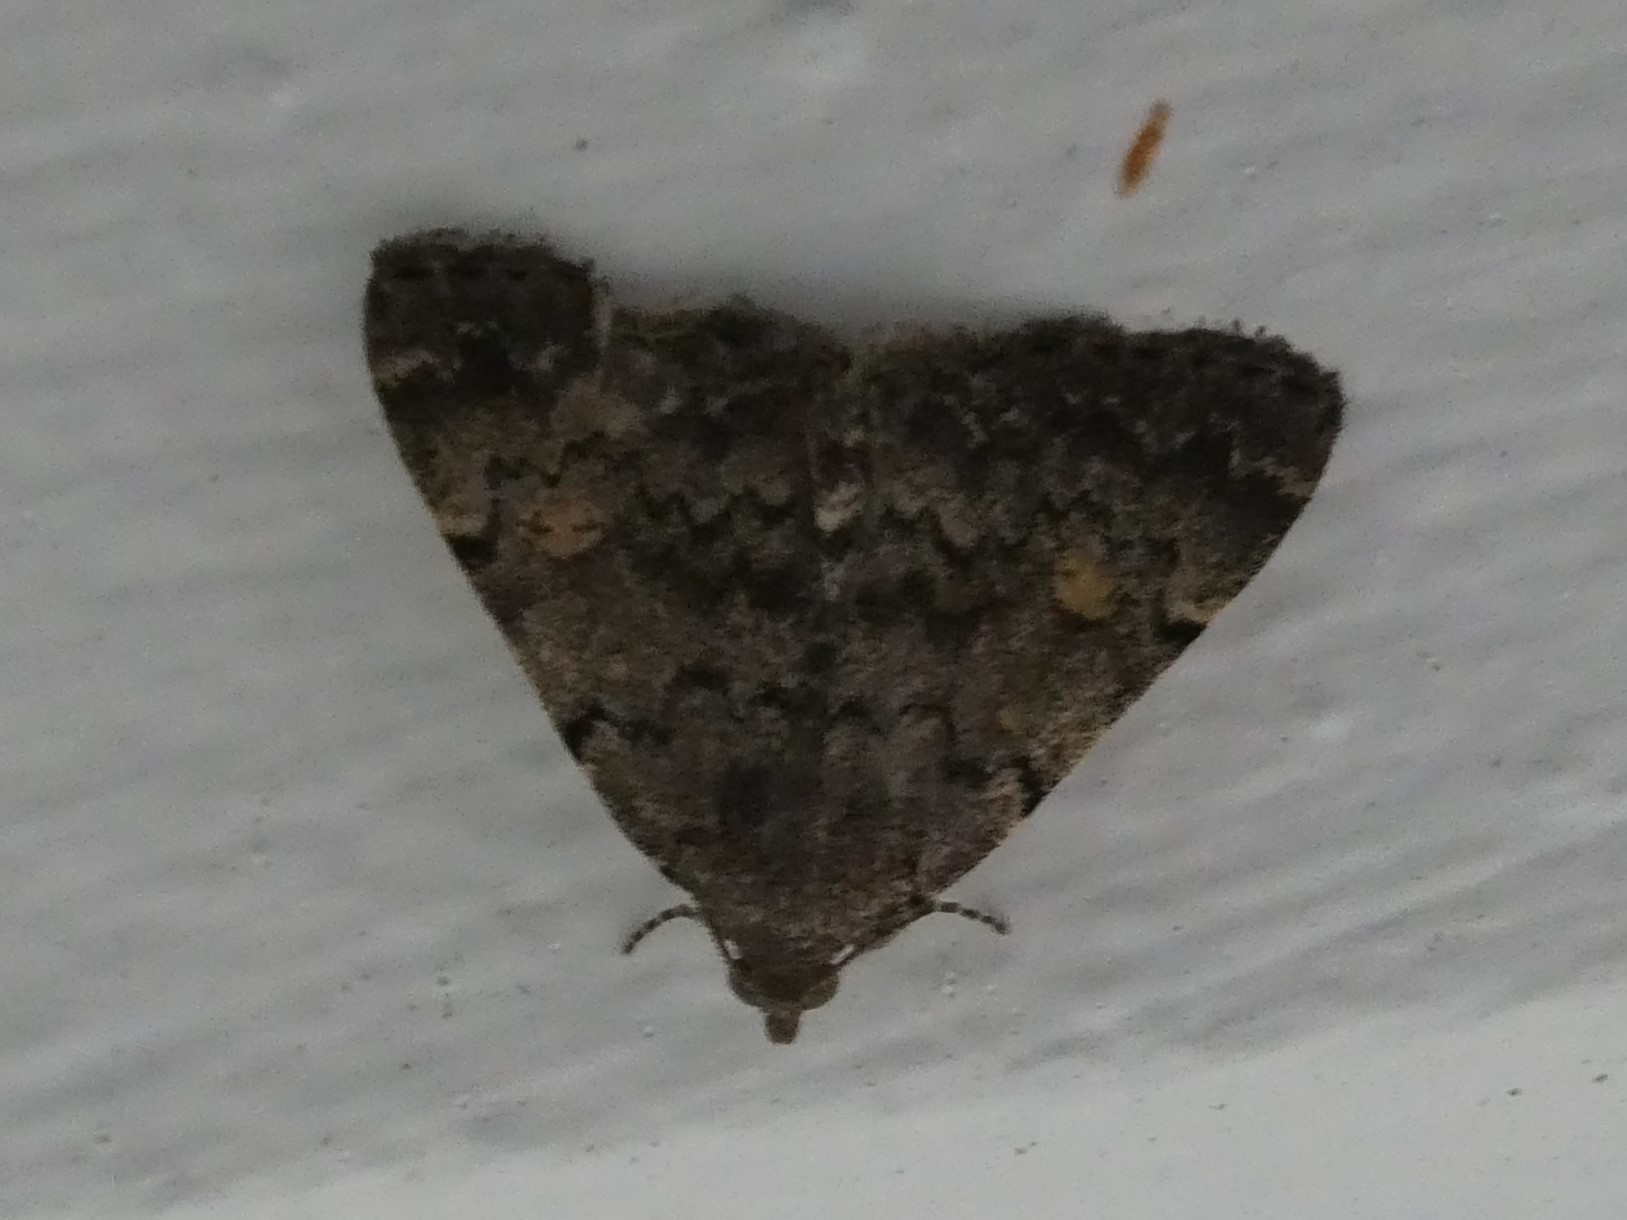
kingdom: Animalia
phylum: Arthropoda
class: Insecta
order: Lepidoptera
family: Erebidae
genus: Idia
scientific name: Idia aemula
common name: Common idia moth
